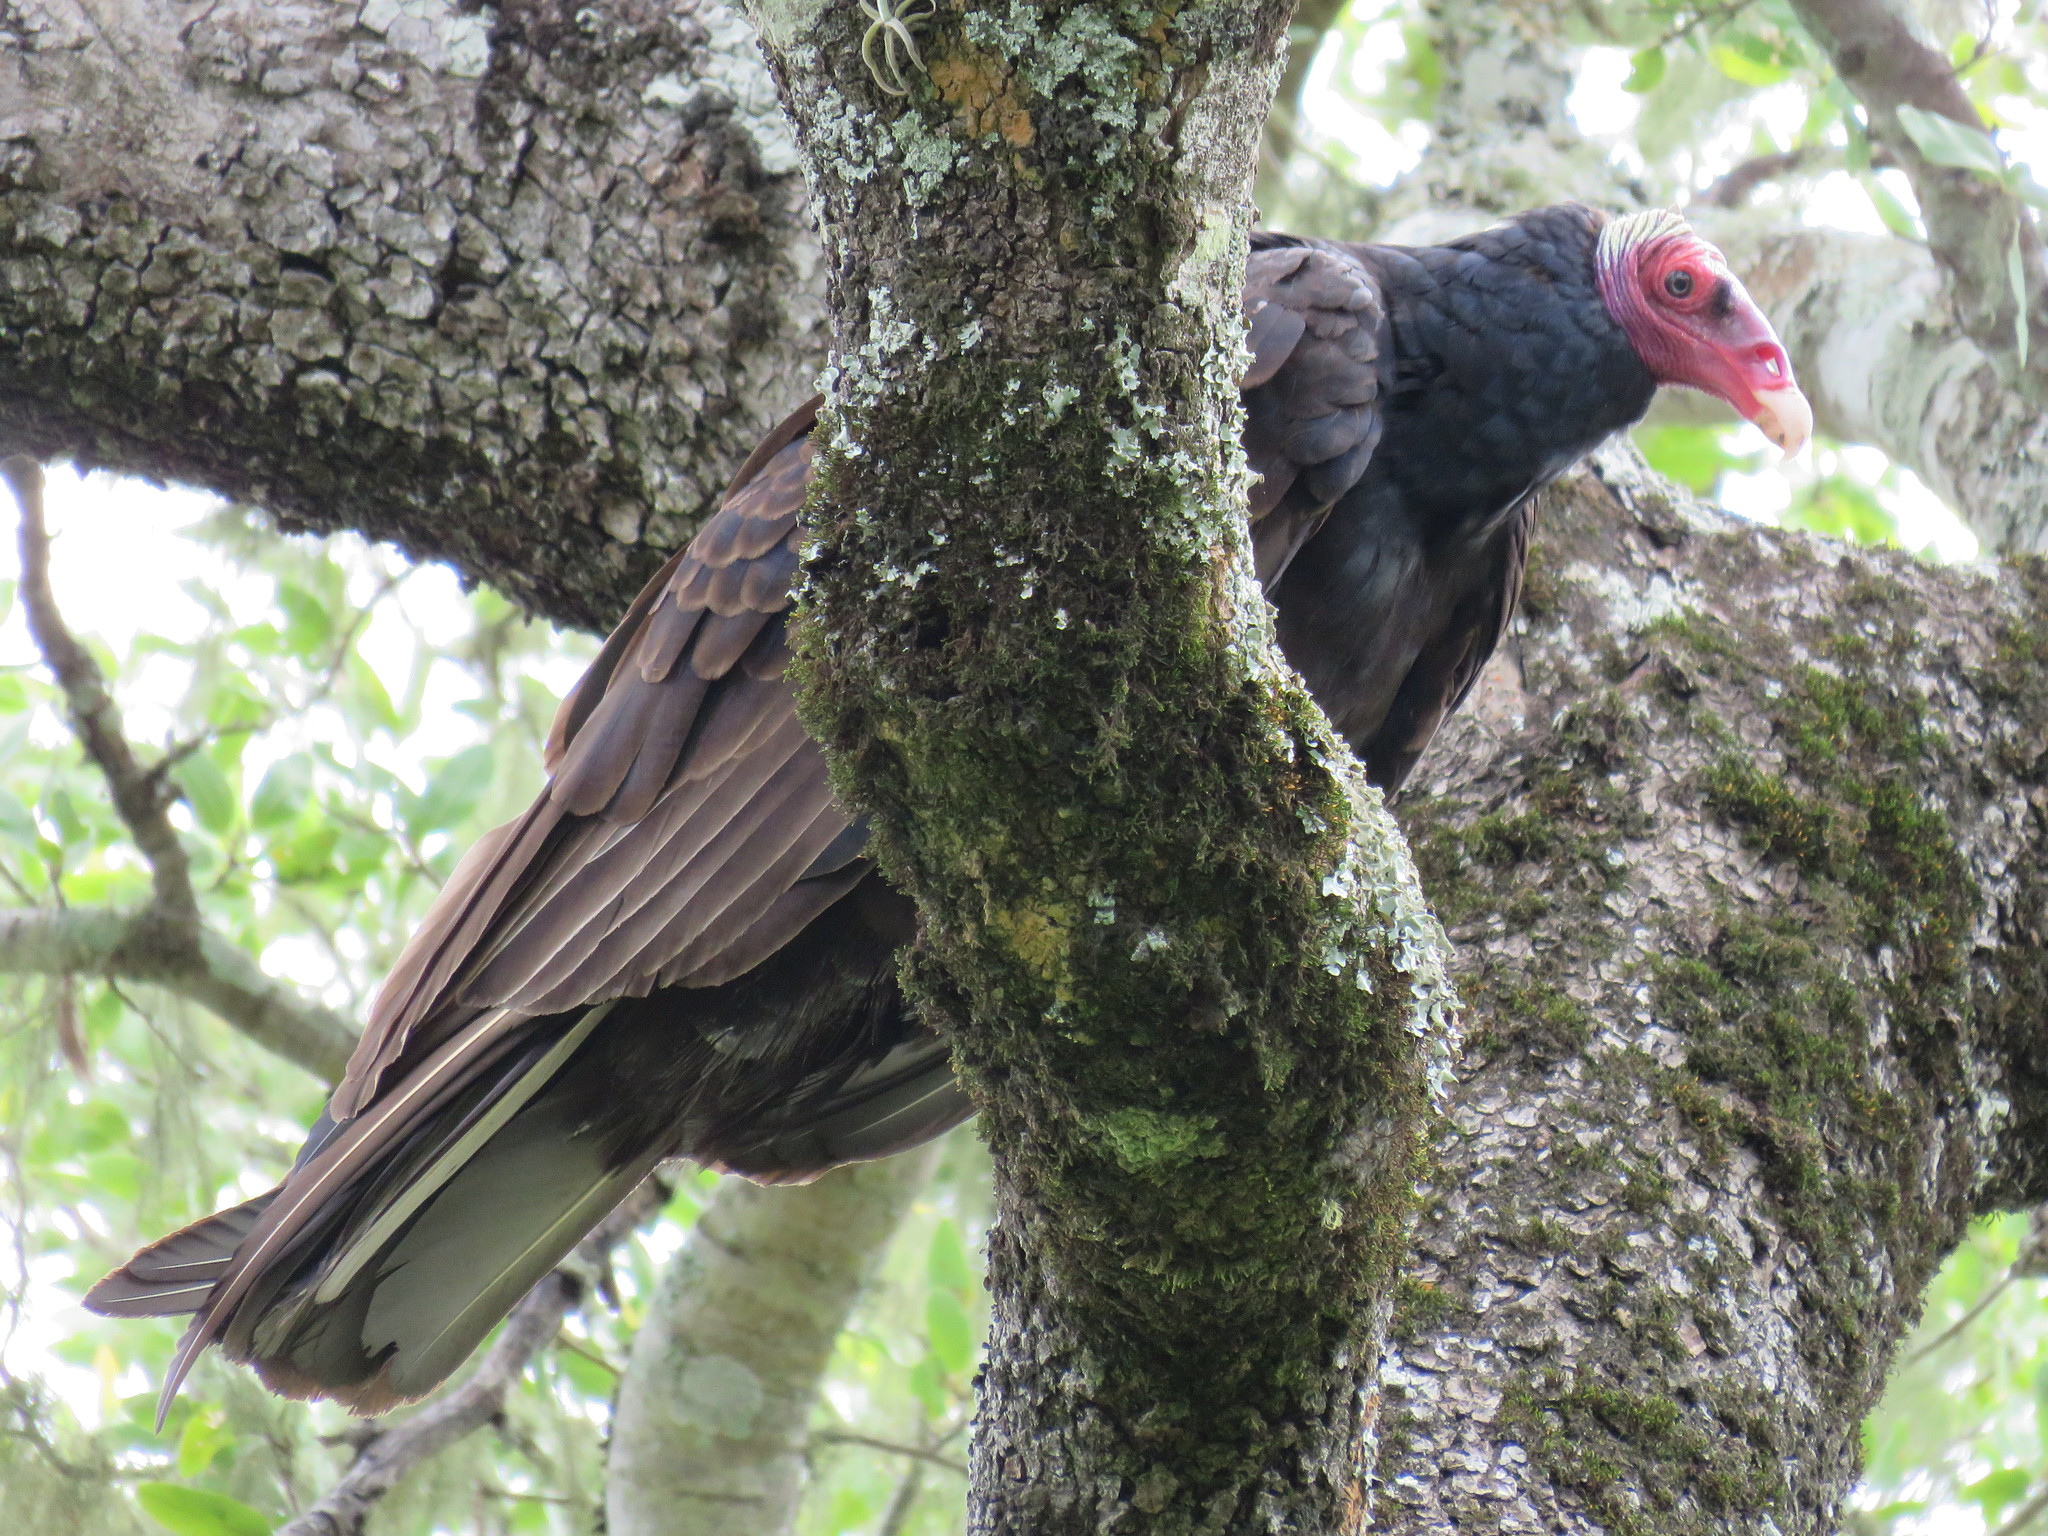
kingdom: Animalia
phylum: Chordata
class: Aves
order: Accipitriformes
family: Cathartidae
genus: Cathartes
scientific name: Cathartes aura
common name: Turkey vulture
